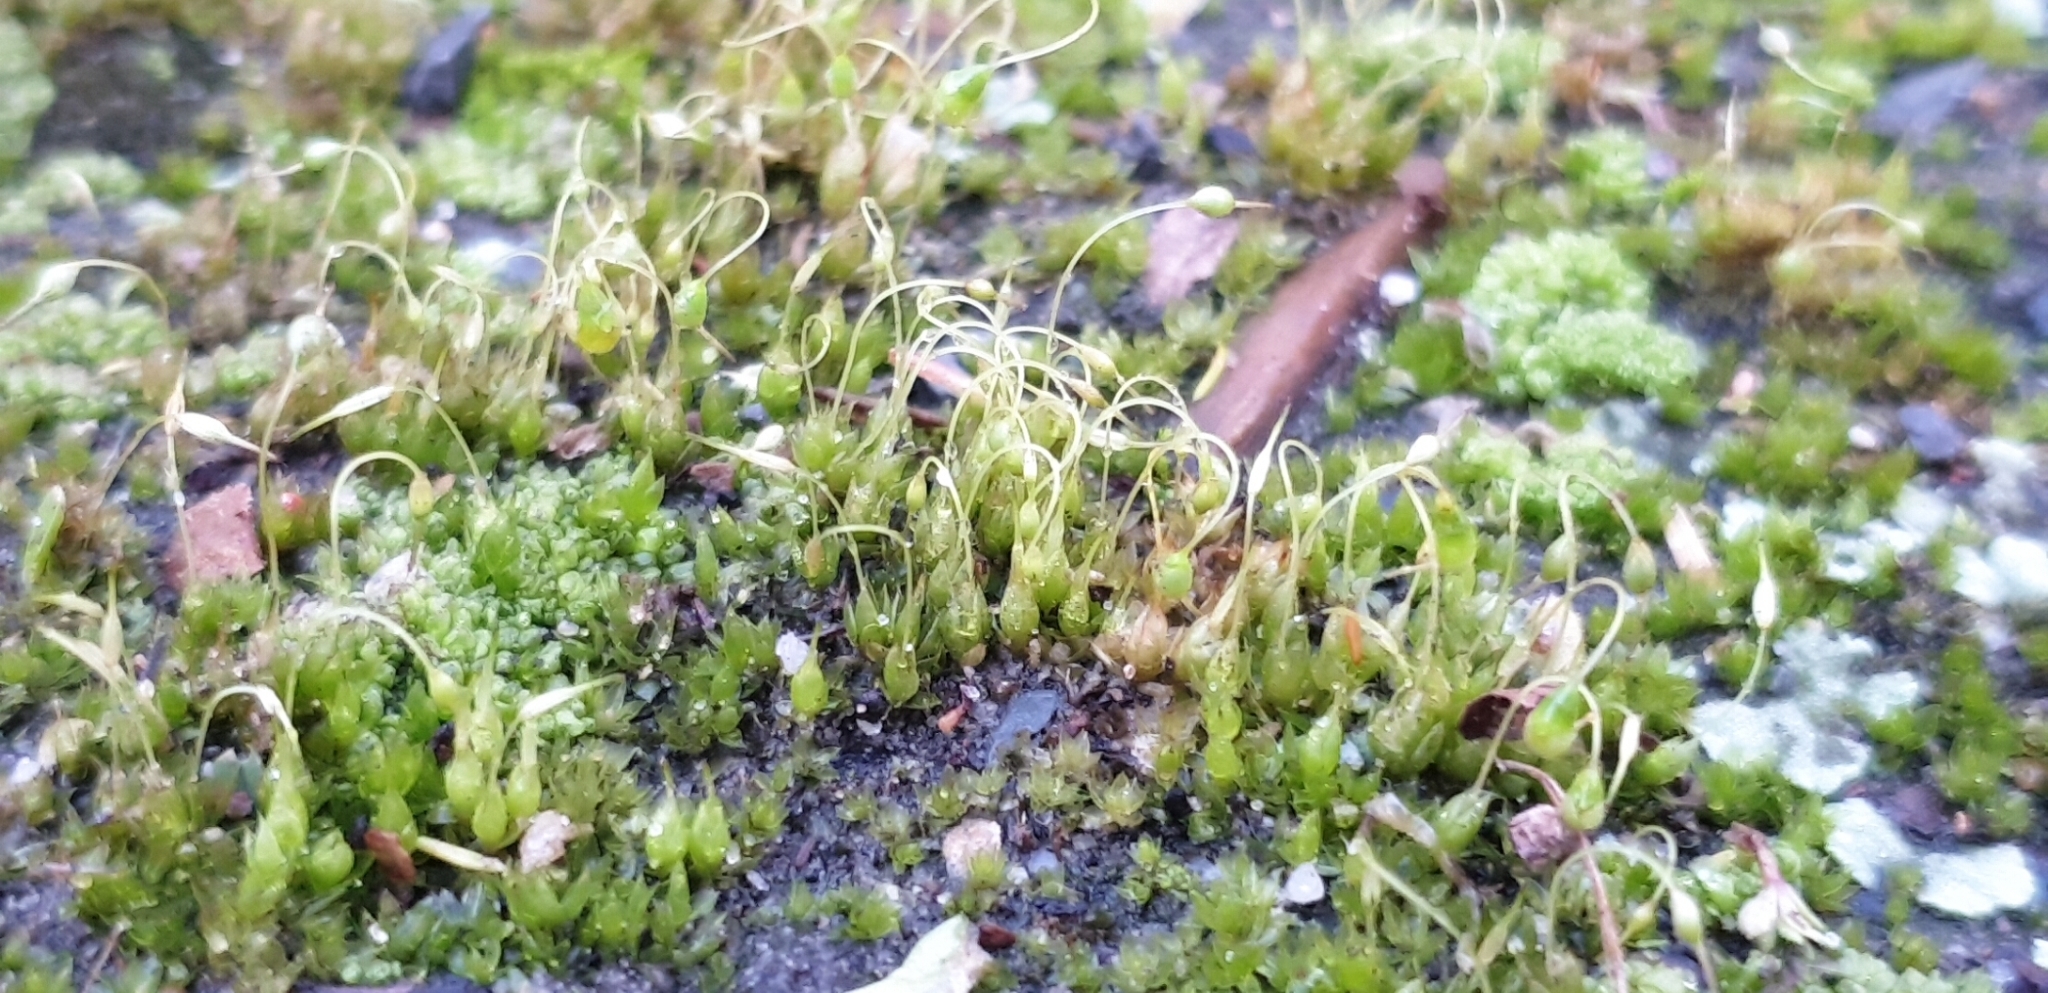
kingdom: Plantae
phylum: Bryophyta
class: Bryopsida
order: Funariales
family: Funariaceae
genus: Funaria
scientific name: Funaria hygrometrica
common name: Common cord moss
